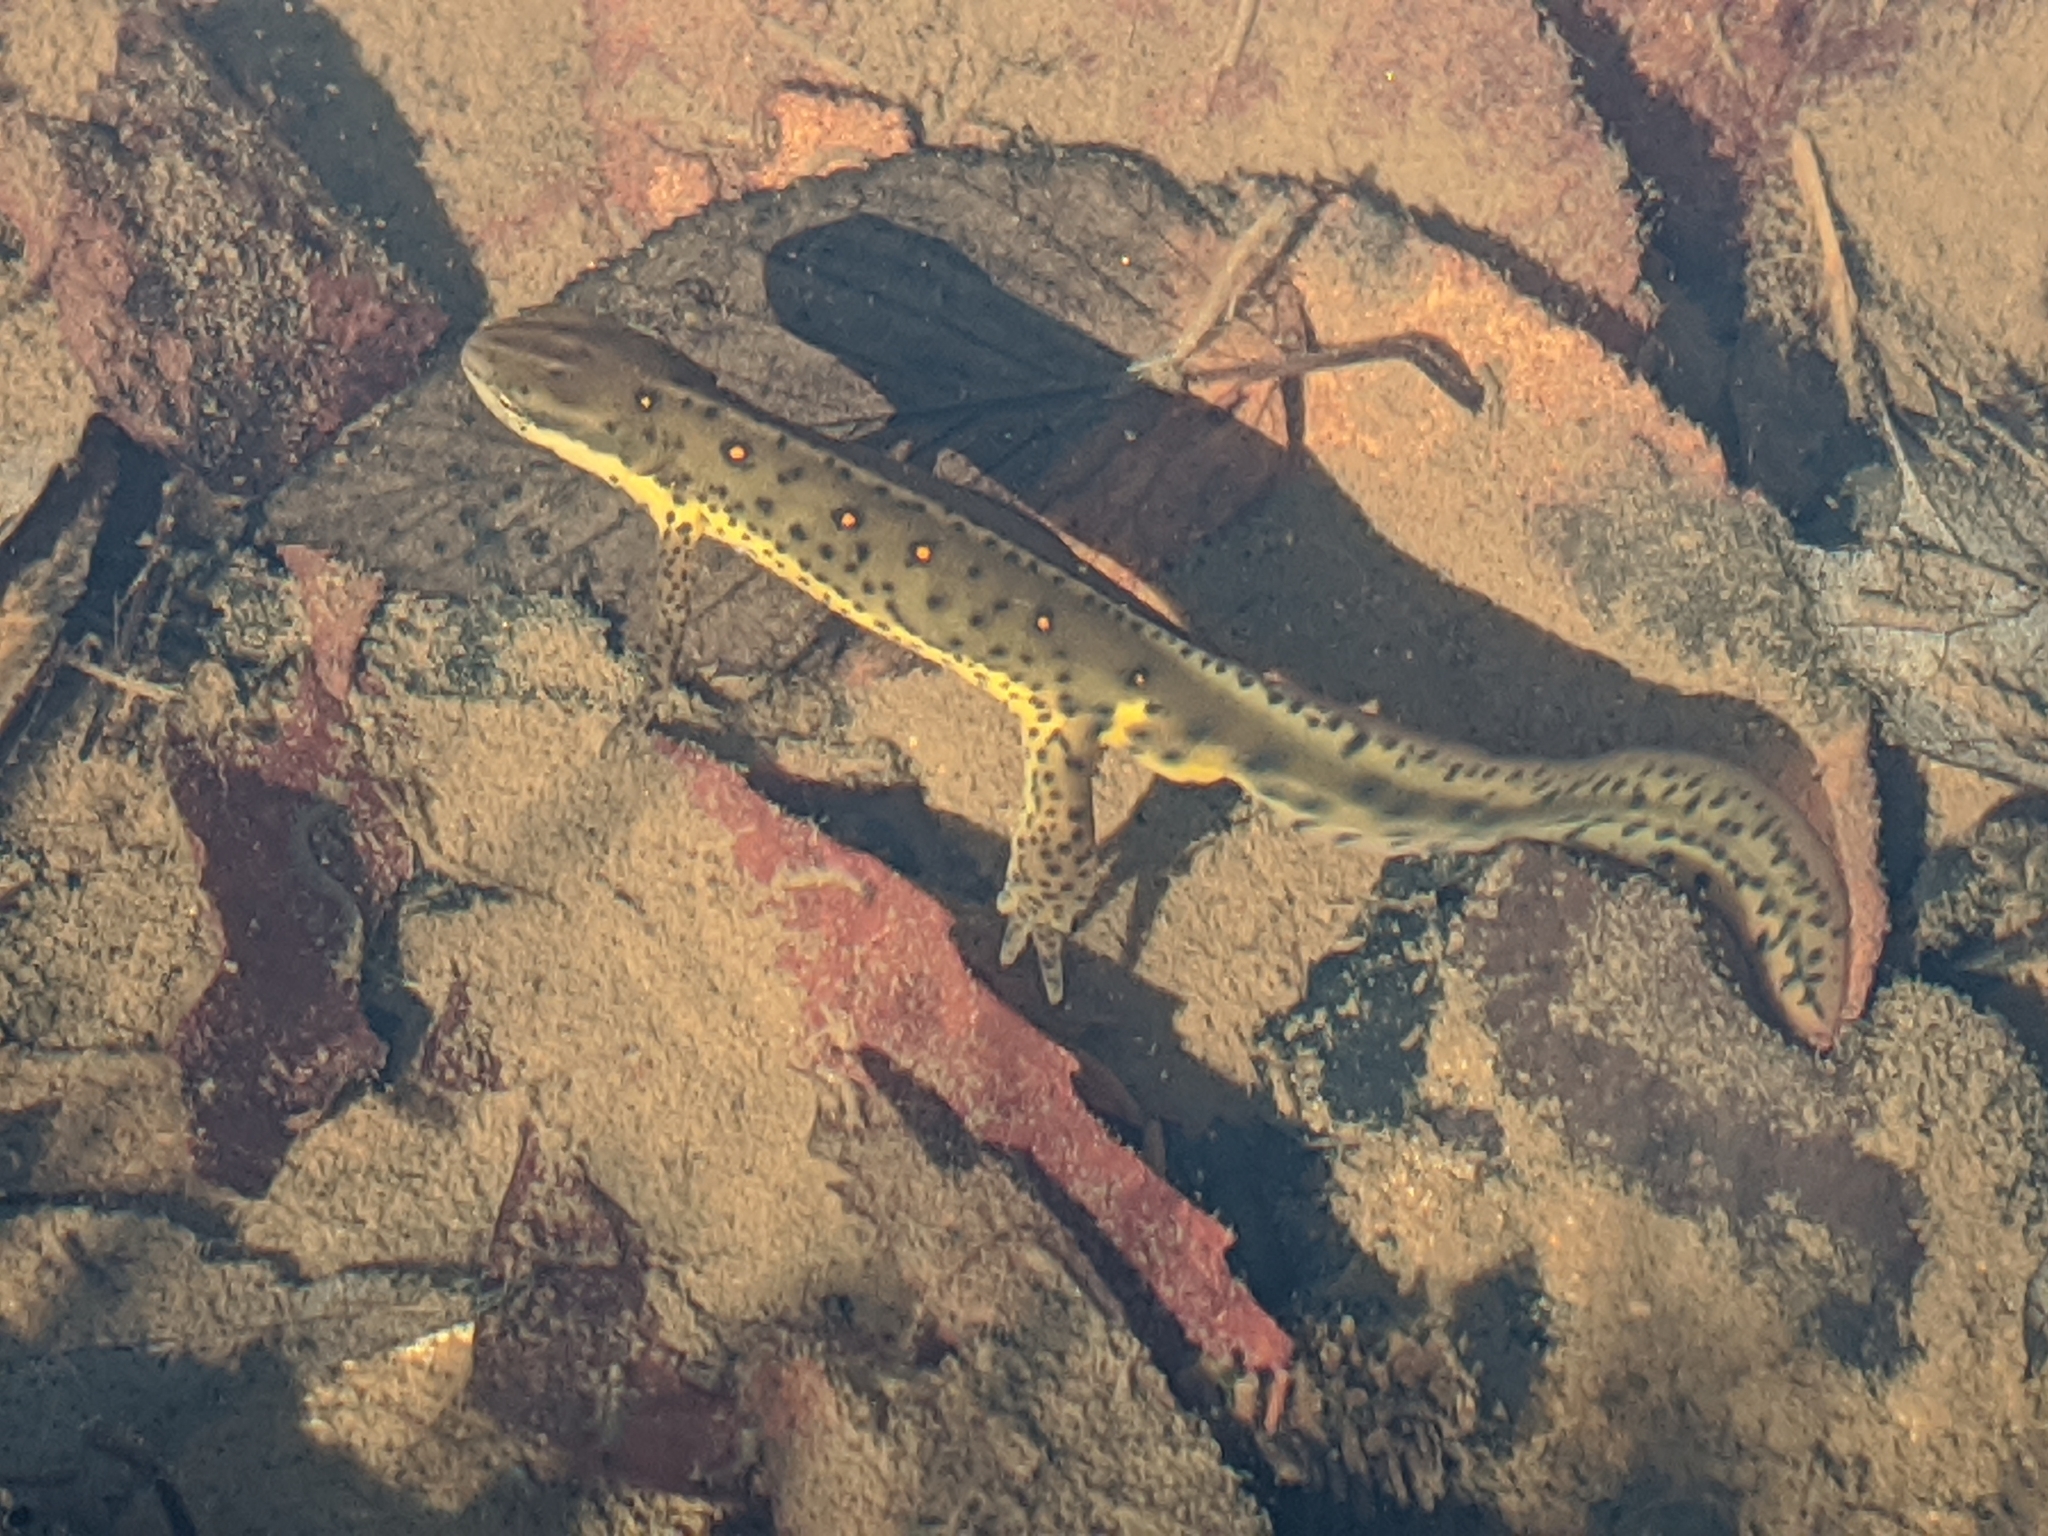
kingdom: Animalia
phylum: Chordata
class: Amphibia
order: Caudata
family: Salamandridae
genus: Notophthalmus
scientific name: Notophthalmus viridescens
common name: Eastern newt
